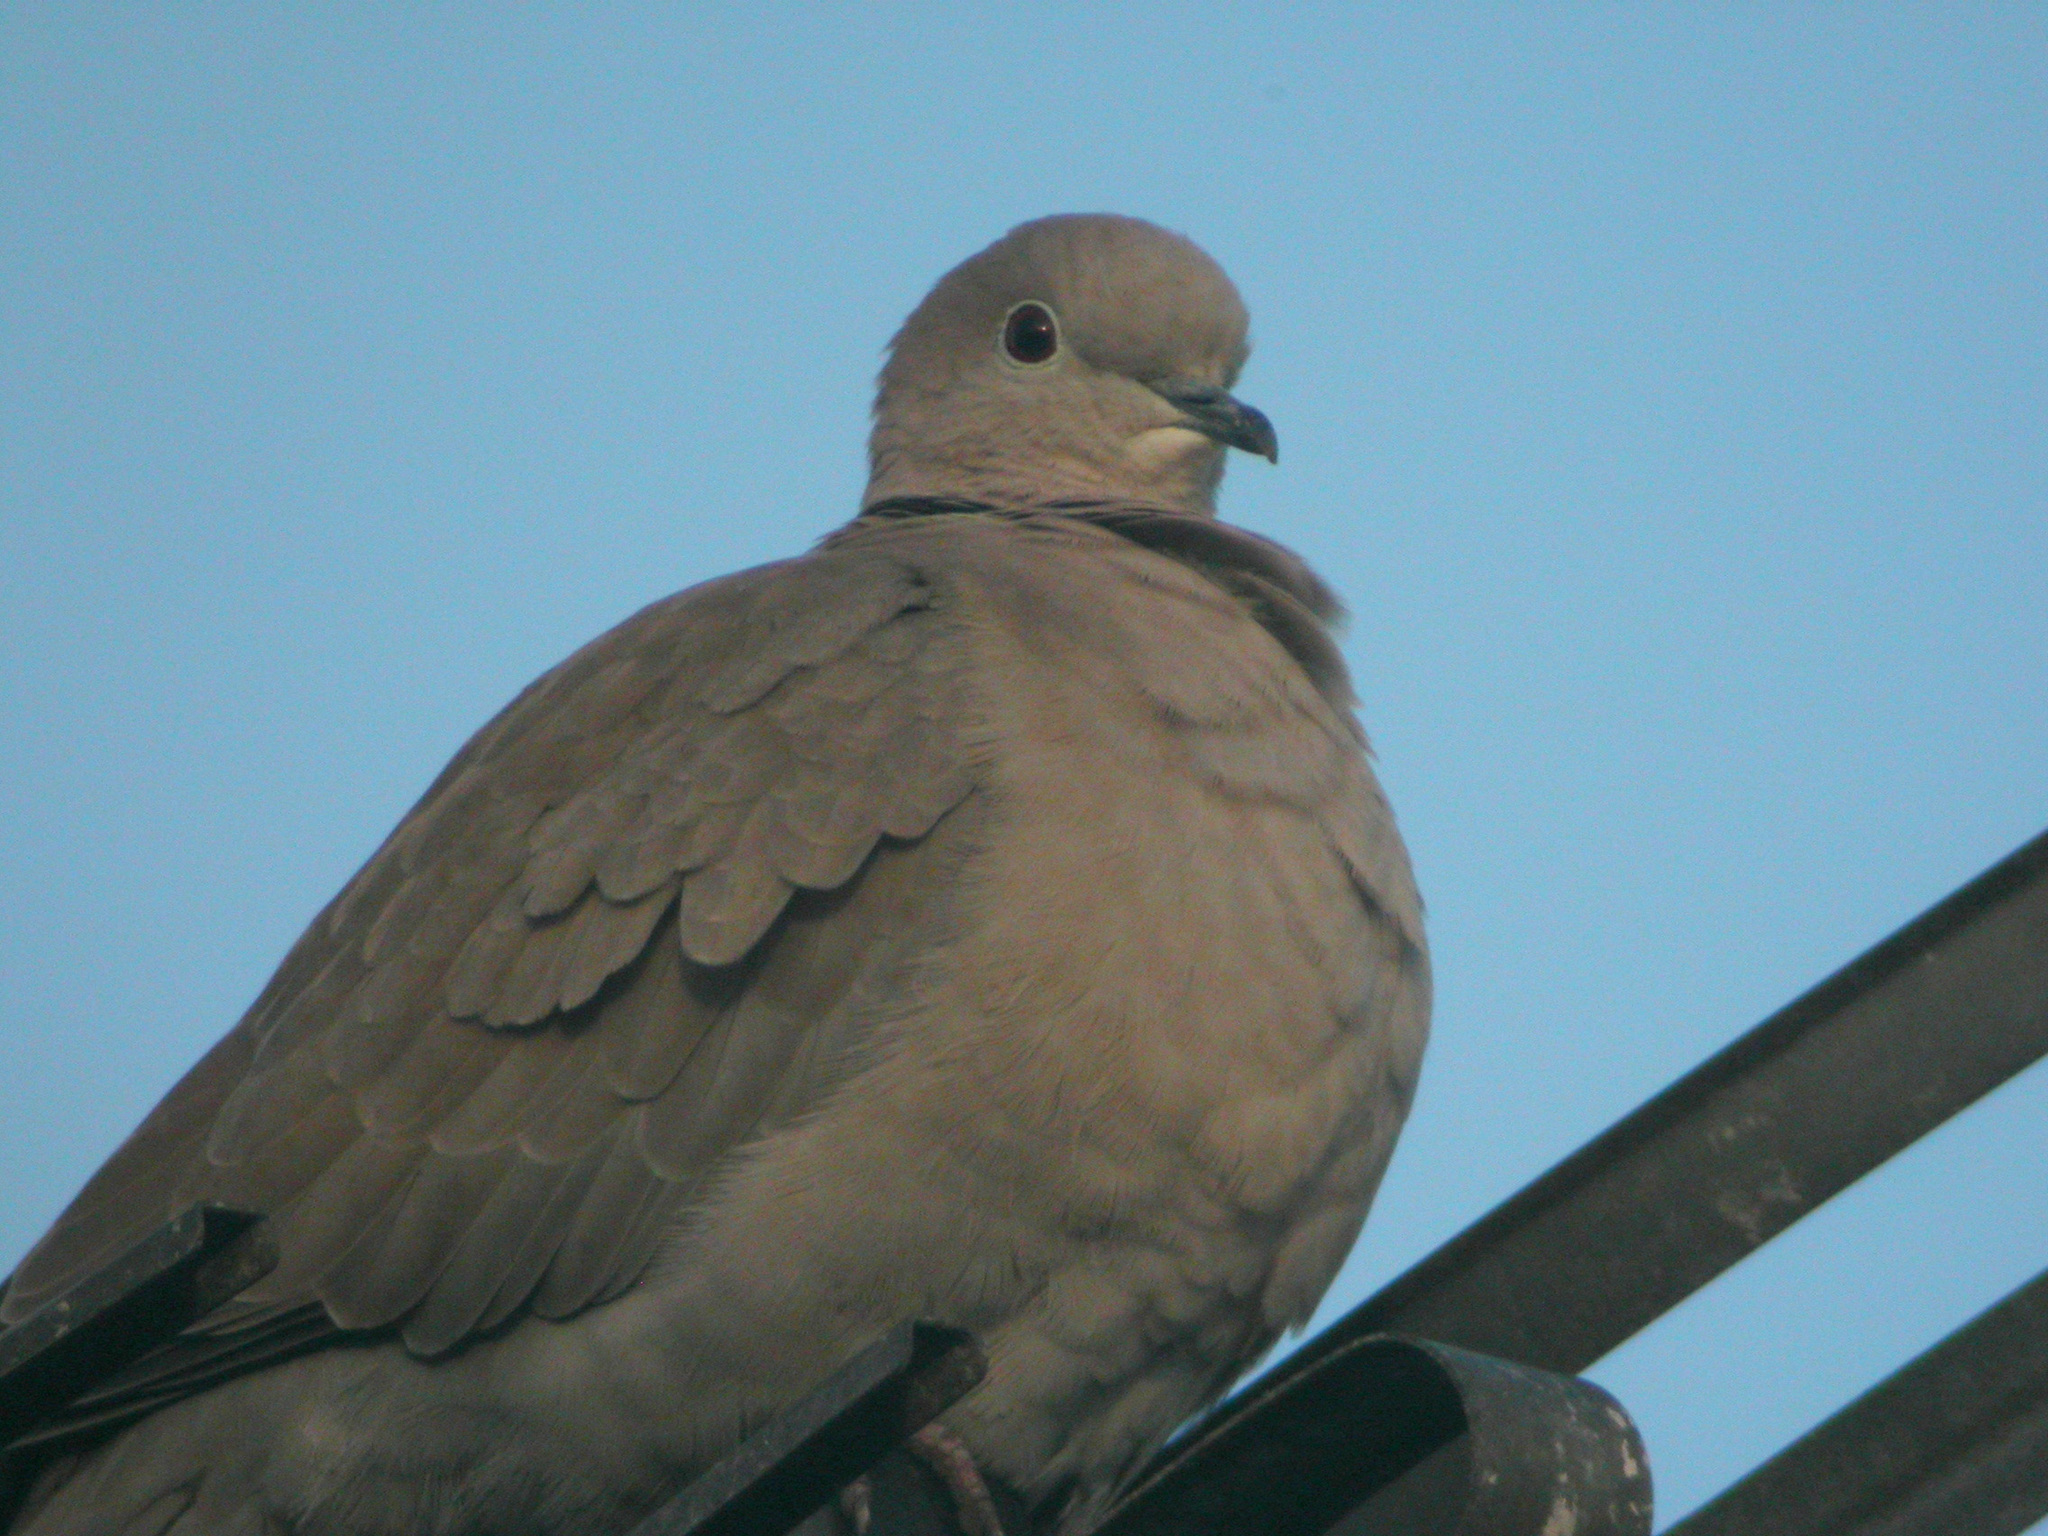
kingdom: Animalia
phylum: Chordata
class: Aves
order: Columbiformes
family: Columbidae
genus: Streptopelia
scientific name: Streptopelia decaocto
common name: Eurasian collared dove
